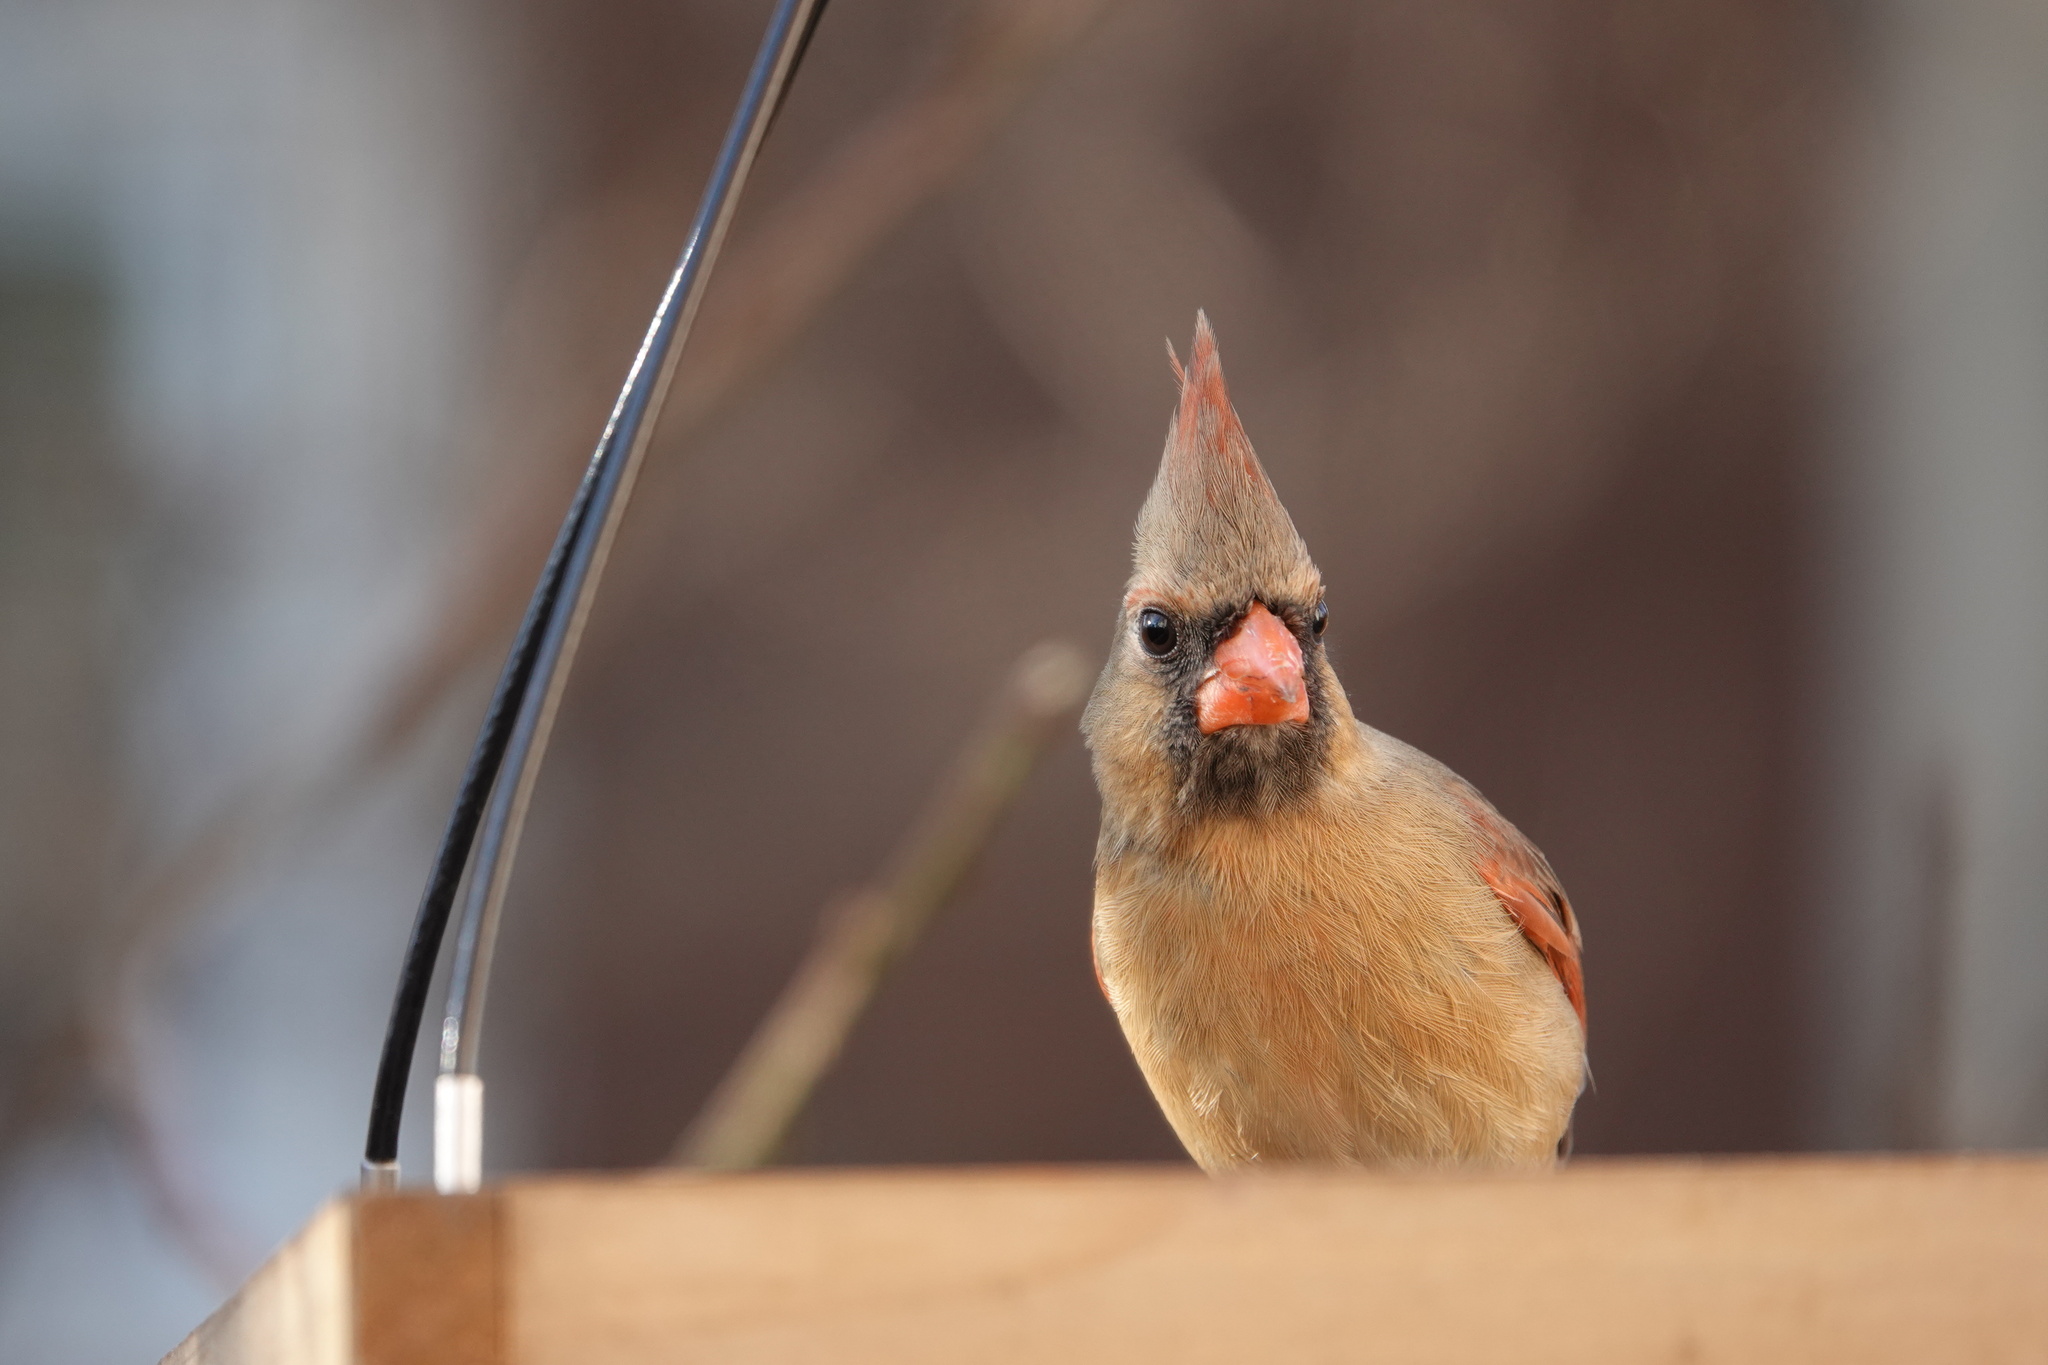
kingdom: Animalia
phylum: Chordata
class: Aves
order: Passeriformes
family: Cardinalidae
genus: Cardinalis
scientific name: Cardinalis cardinalis
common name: Northern cardinal
